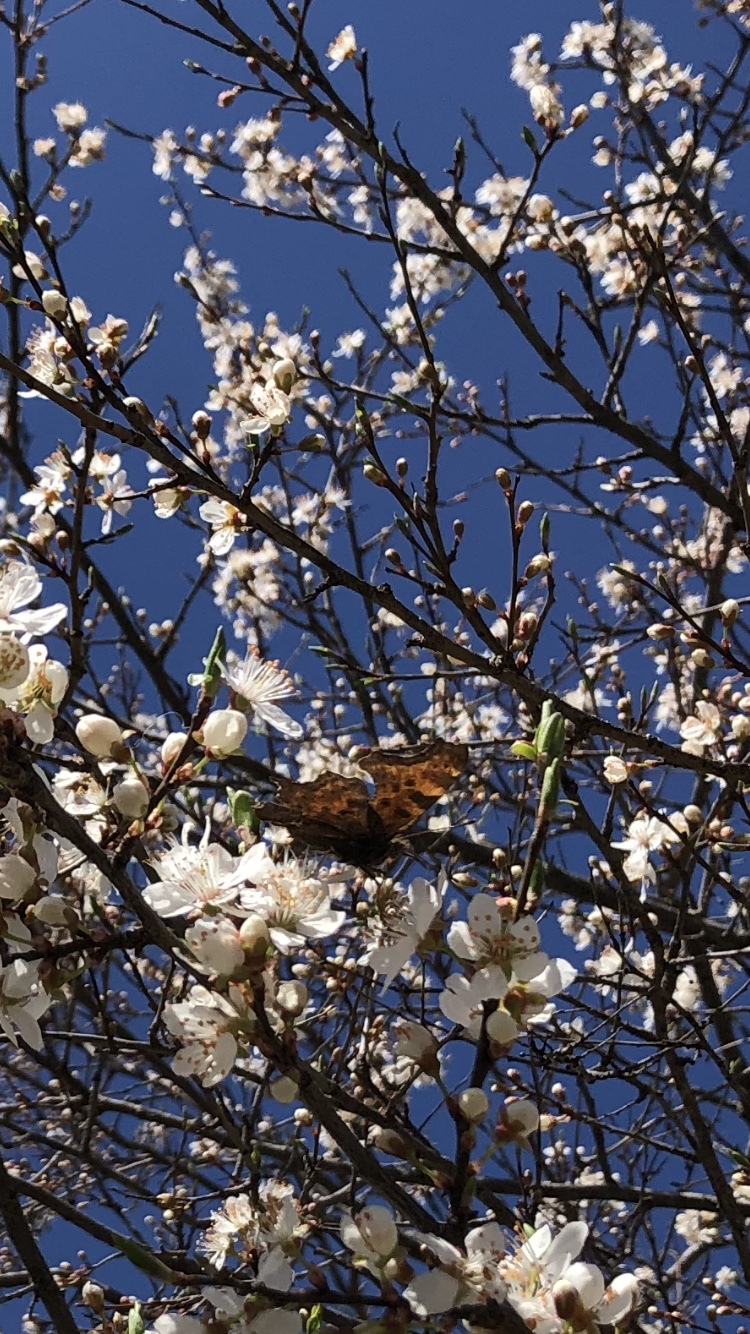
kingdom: Animalia
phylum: Arthropoda
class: Insecta
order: Lepidoptera
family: Nymphalidae
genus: Polygonia
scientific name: Polygonia c-album
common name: Comma
